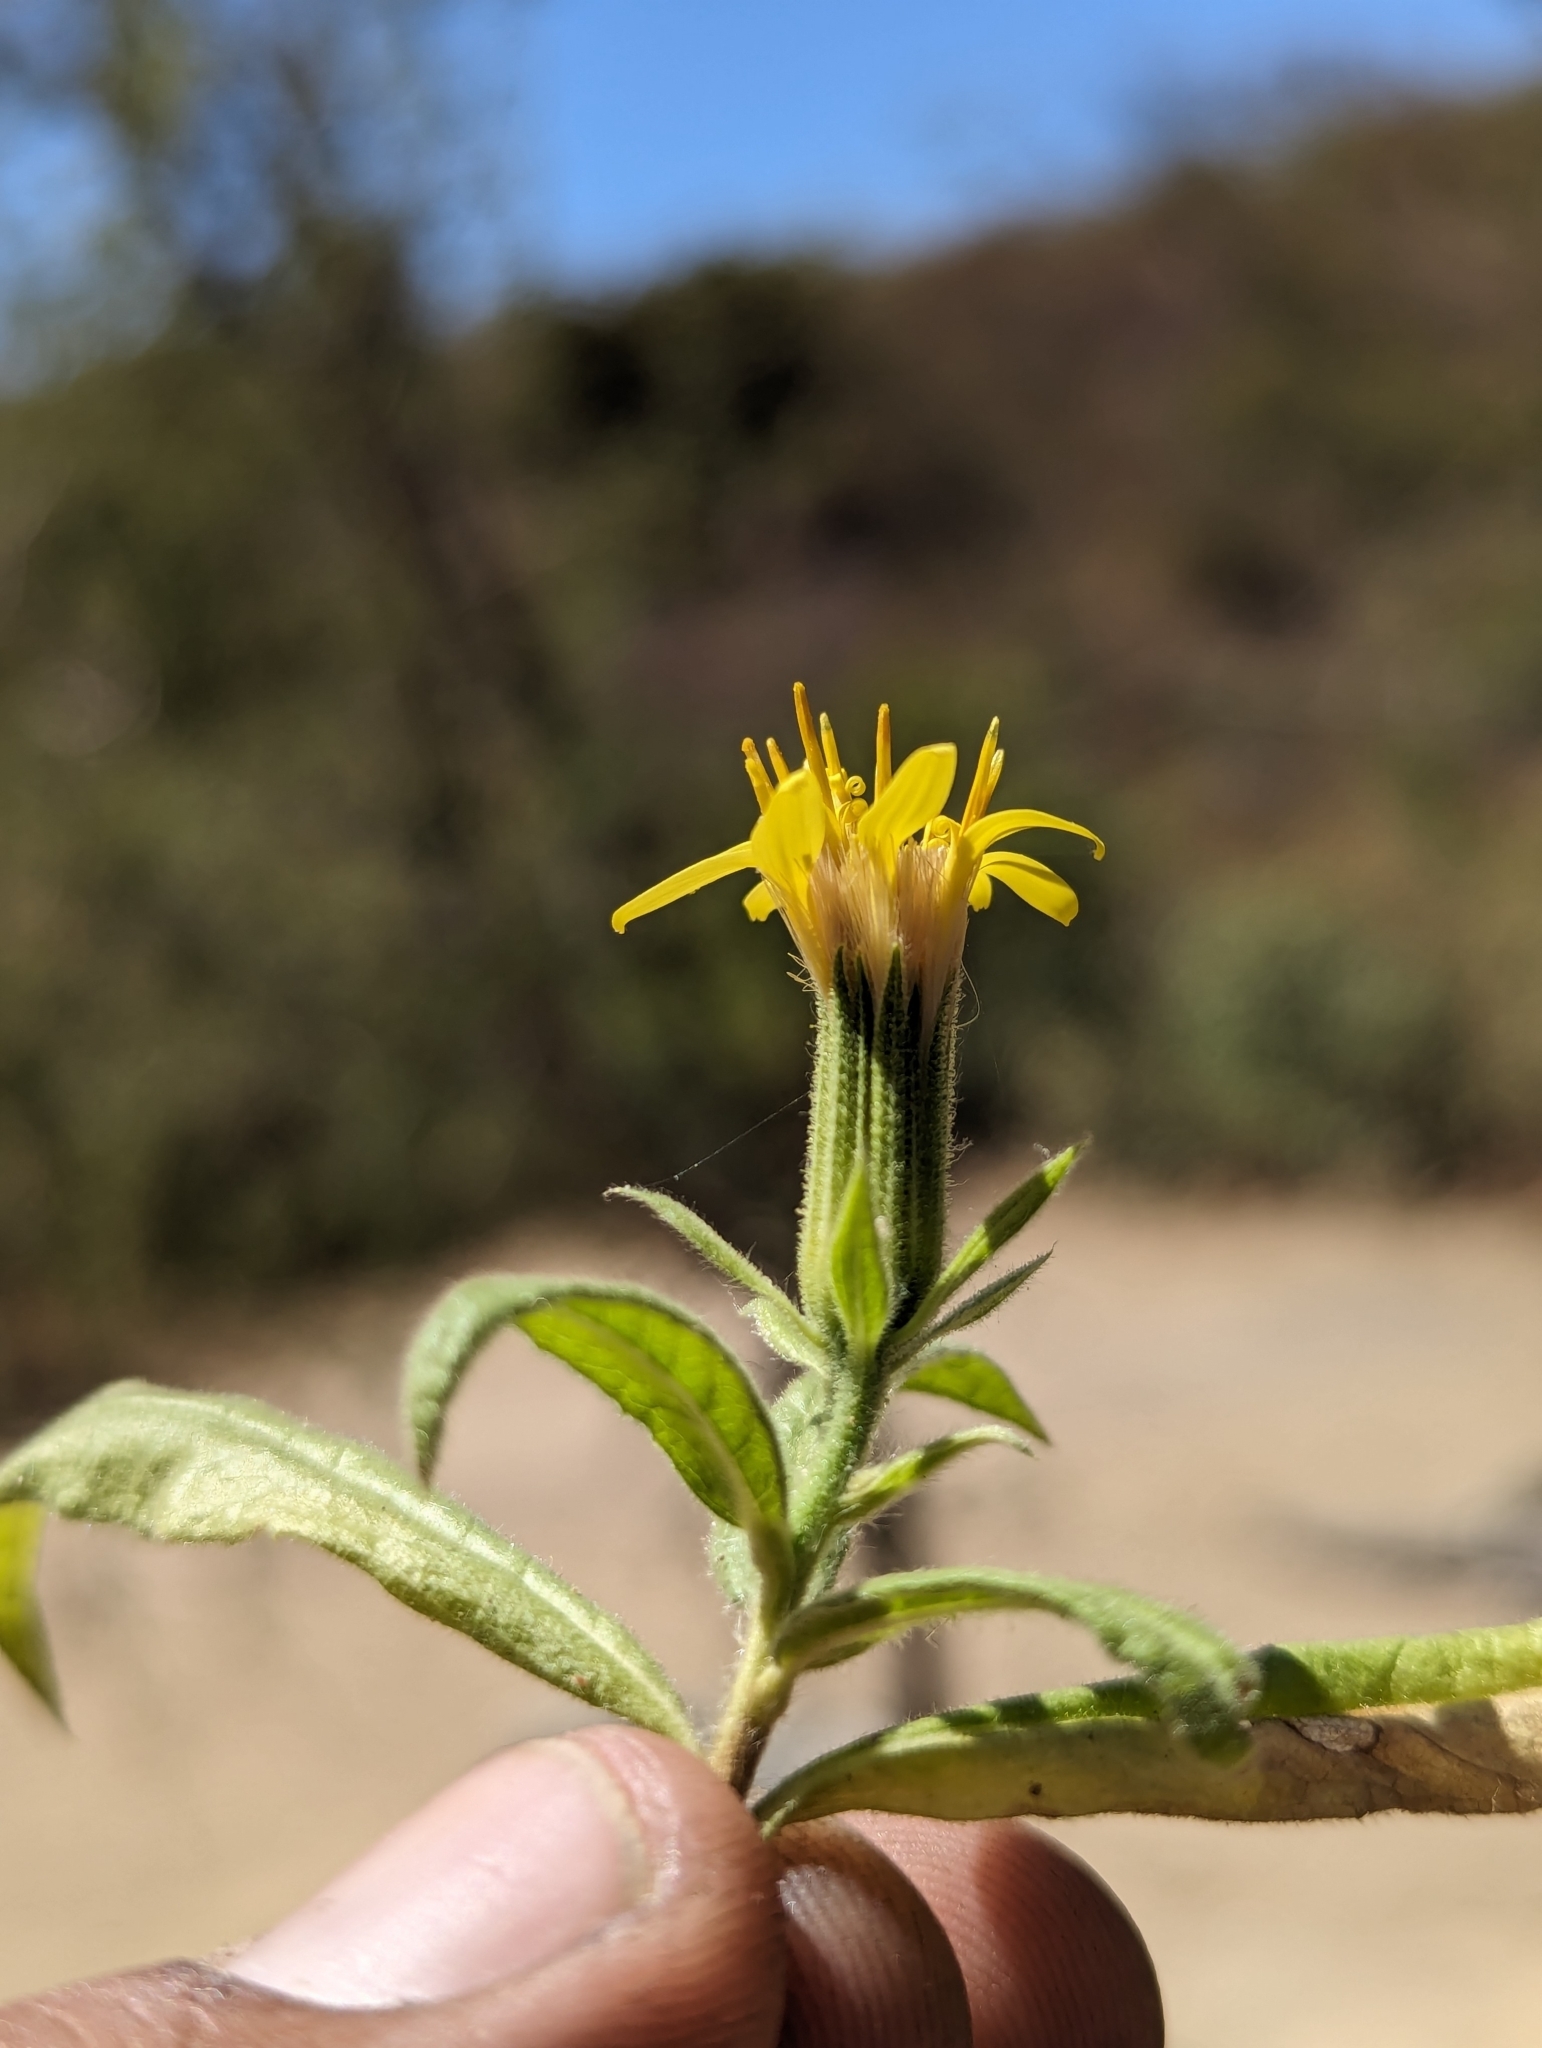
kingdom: Plantae
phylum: Tracheophyta
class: Magnoliopsida
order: Asterales
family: Asteraceae
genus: Trixis
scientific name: Trixis californica
